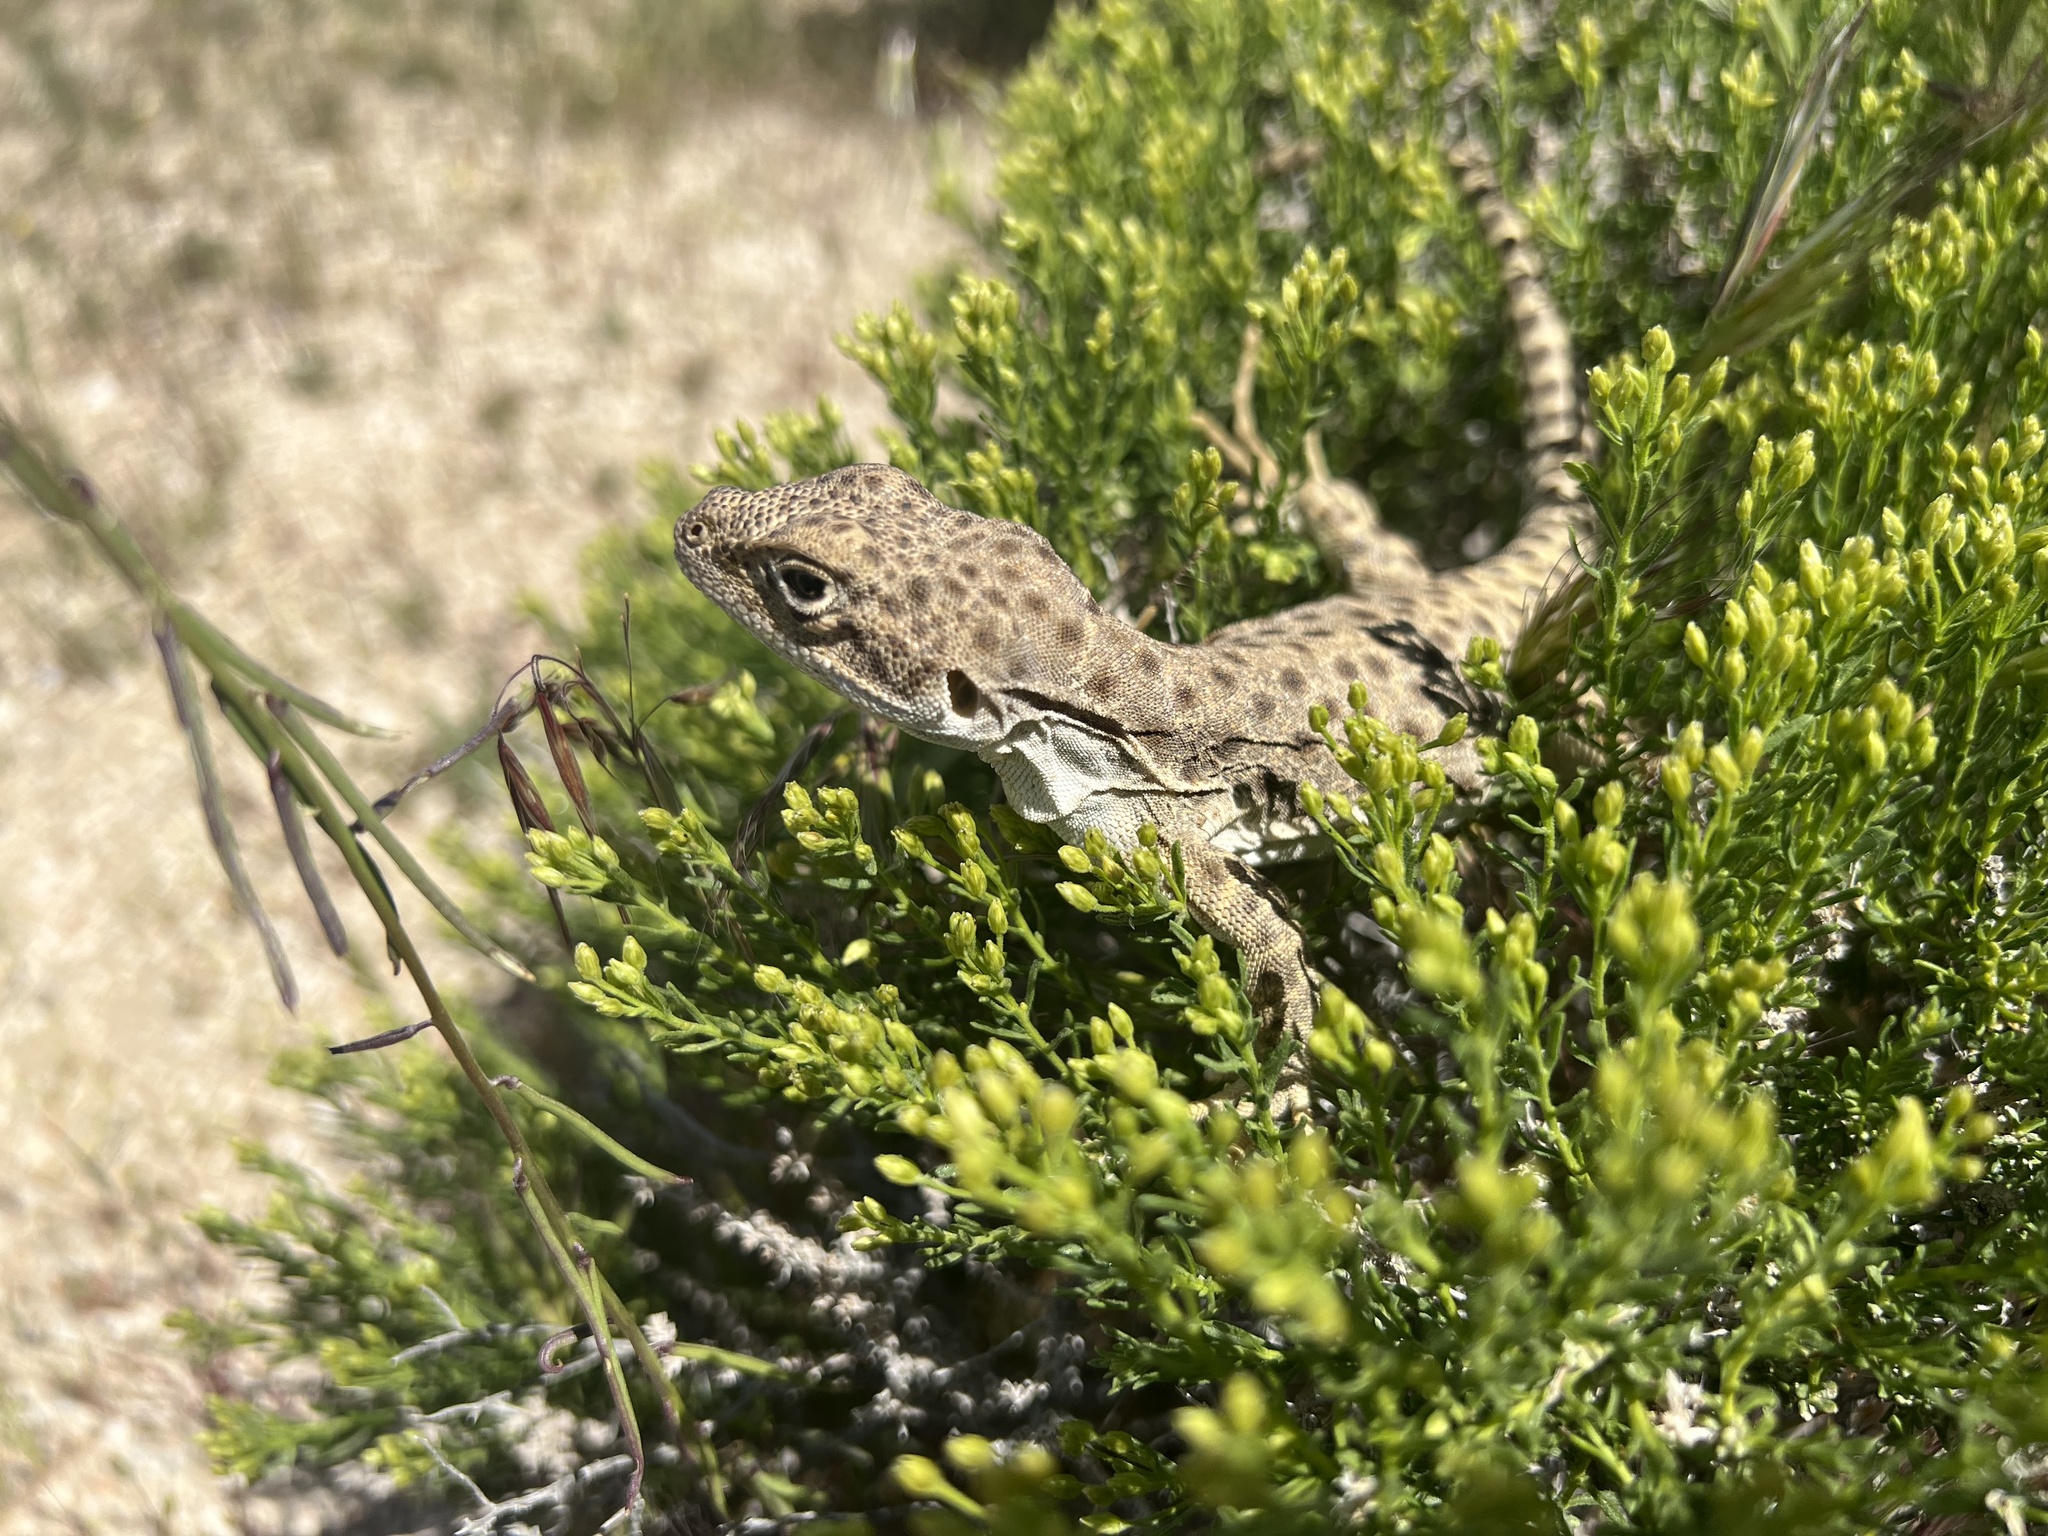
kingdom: Animalia
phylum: Chordata
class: Squamata
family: Crotaphytidae
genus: Gambelia
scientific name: Gambelia wislizenii
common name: Longnose leopard lizard
